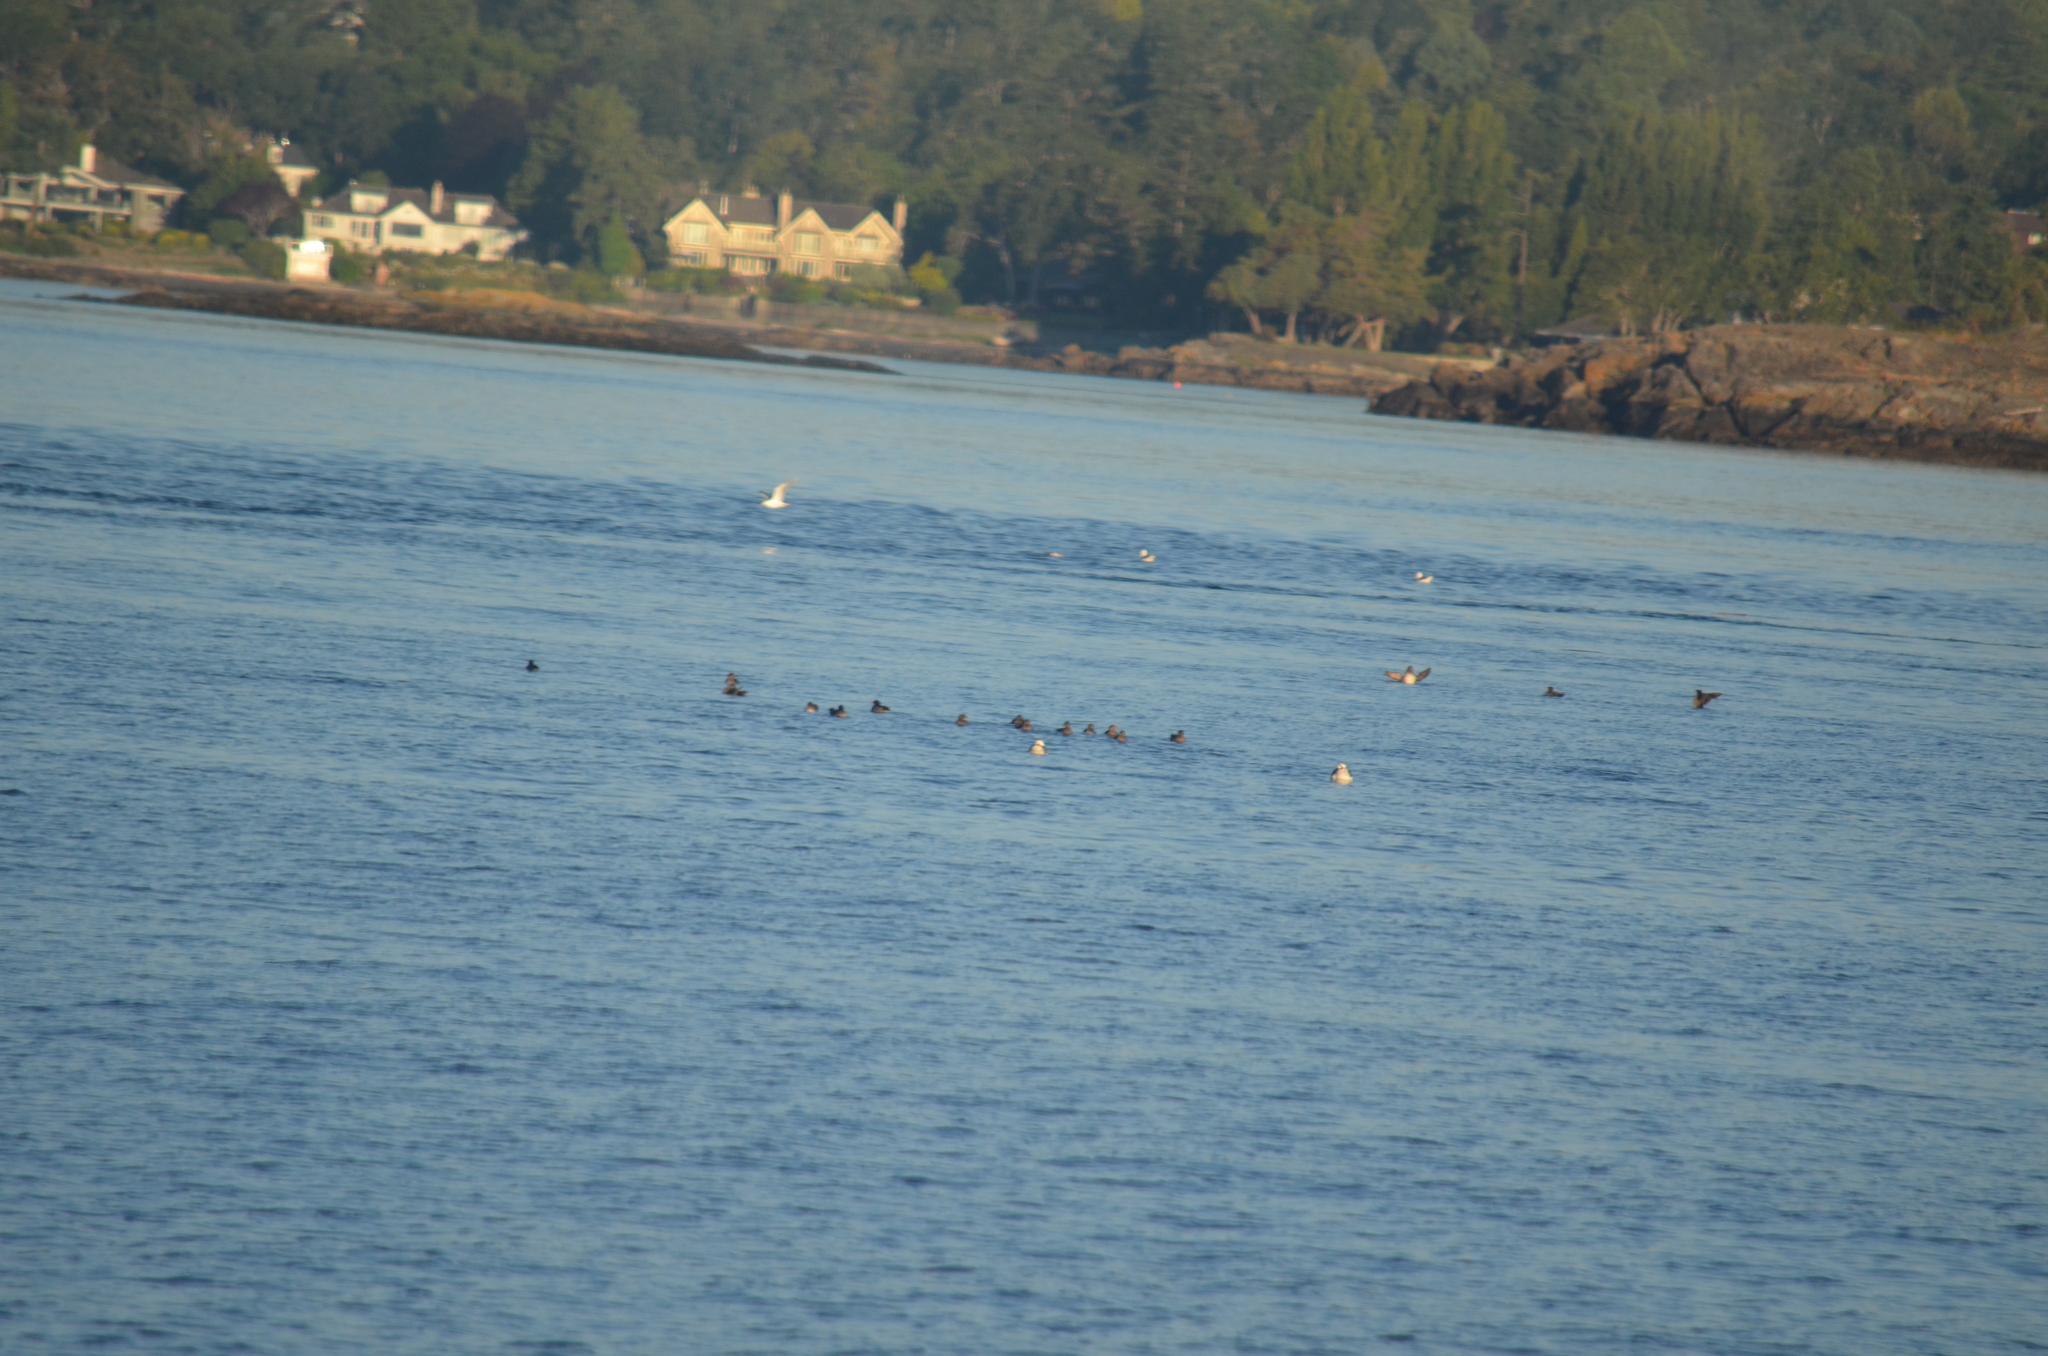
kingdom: Animalia
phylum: Chordata
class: Aves
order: Charadriiformes
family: Alcidae
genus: Cerorhinca
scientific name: Cerorhinca monocerata
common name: Rhinoceros auklet
